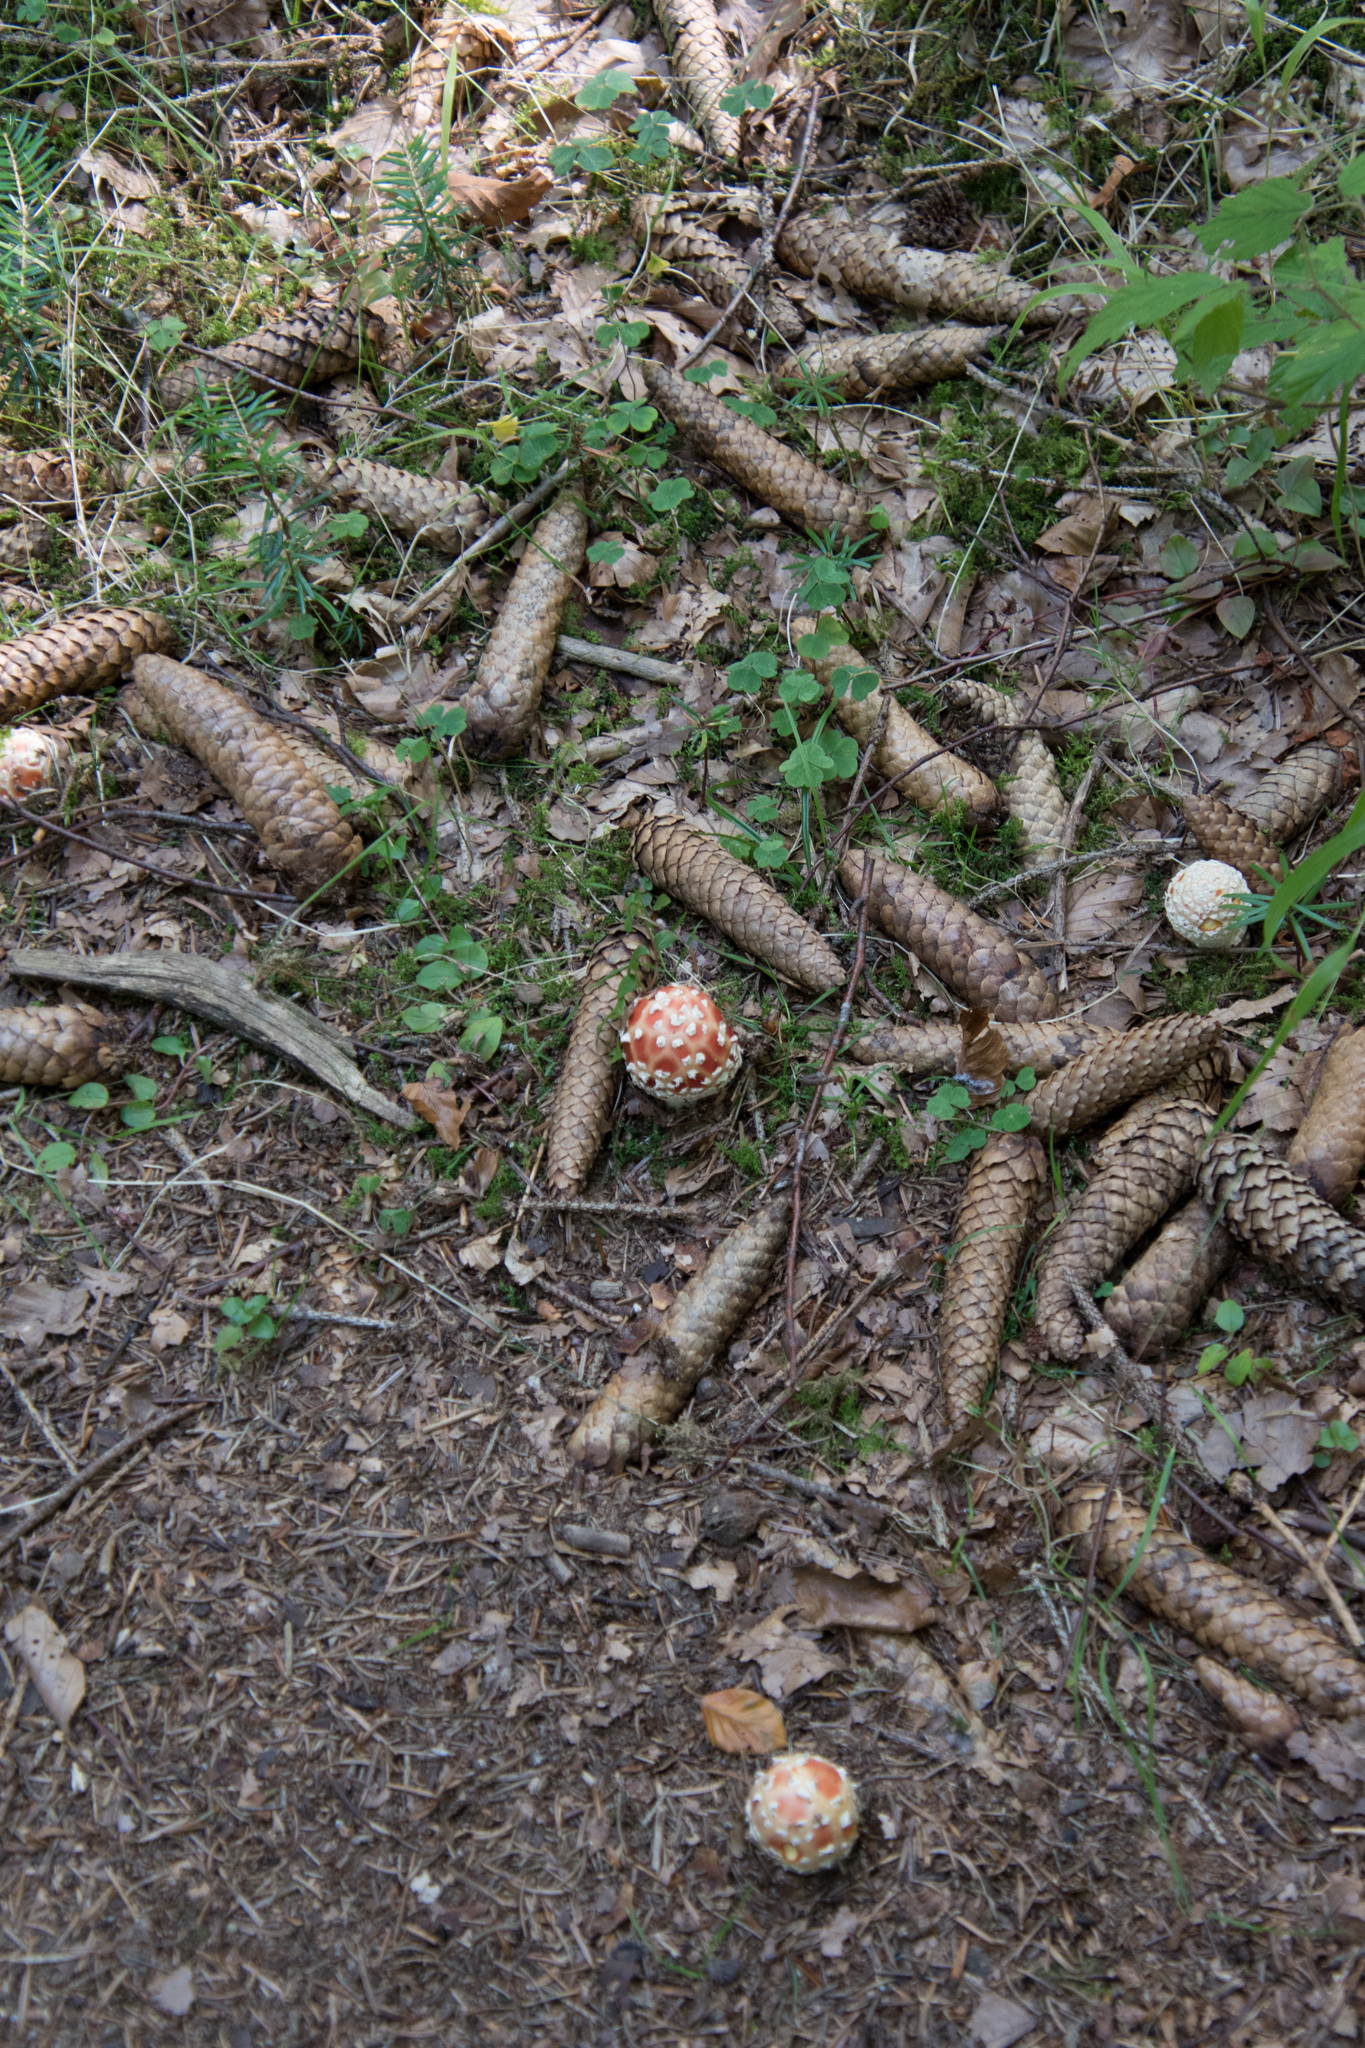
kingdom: Fungi
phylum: Basidiomycota
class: Agaricomycetes
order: Agaricales
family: Amanitaceae
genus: Amanita
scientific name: Amanita muscaria
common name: Fly agaric
